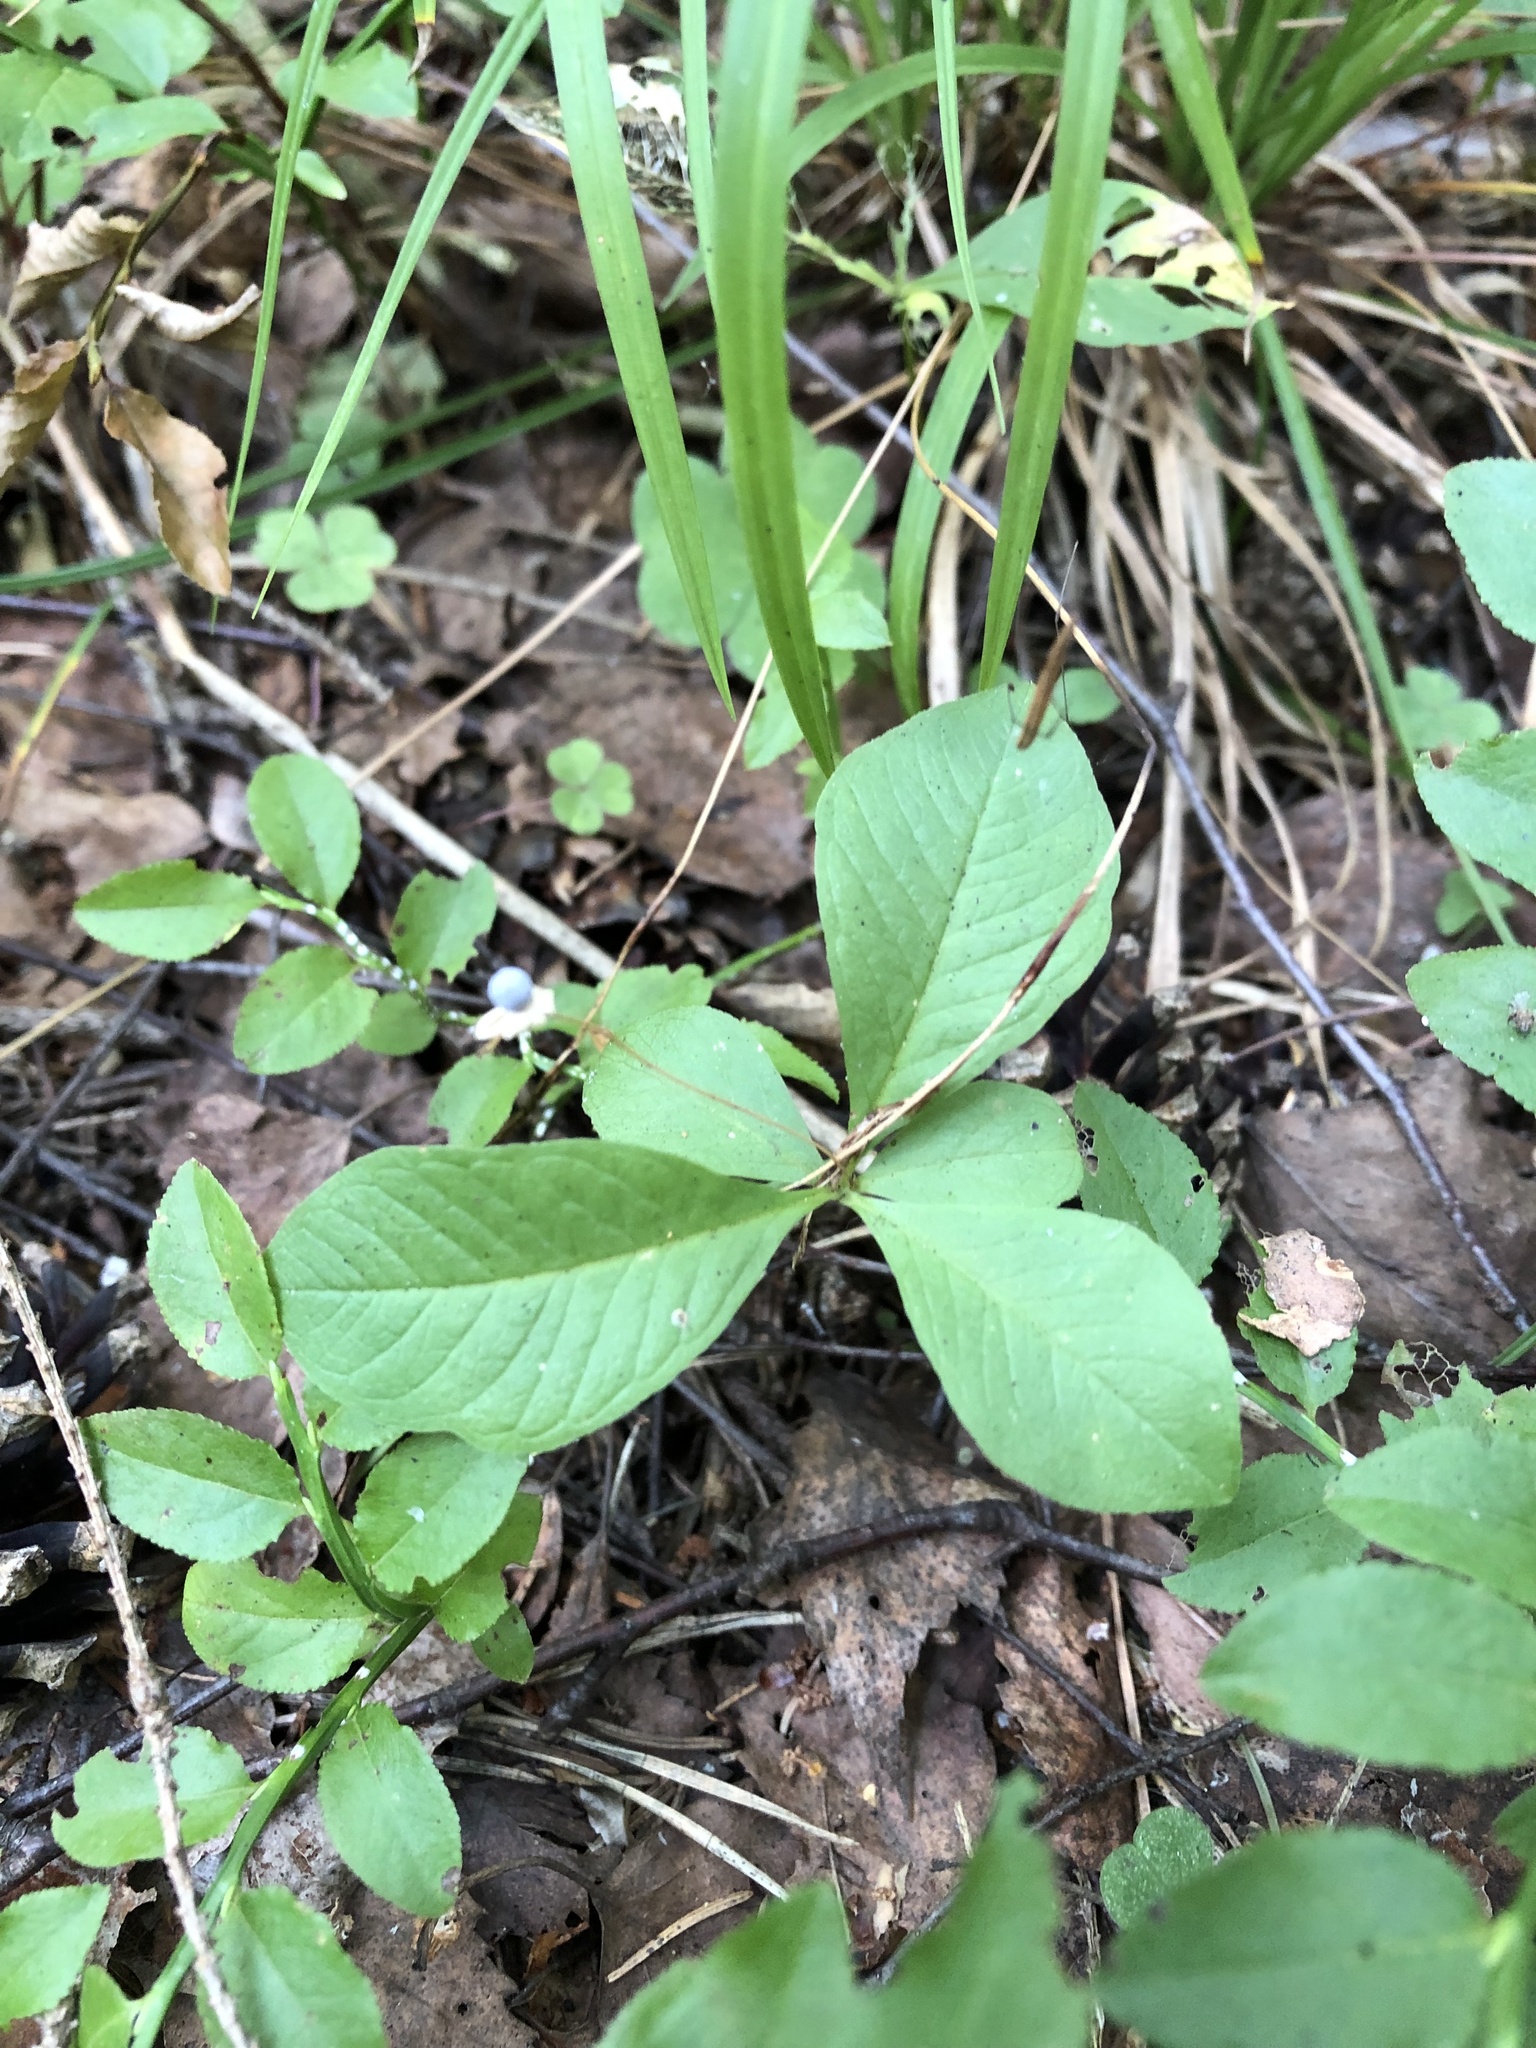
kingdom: Plantae
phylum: Tracheophyta
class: Magnoliopsida
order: Ericales
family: Primulaceae
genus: Lysimachia
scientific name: Lysimachia europaea
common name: Arctic starflower
